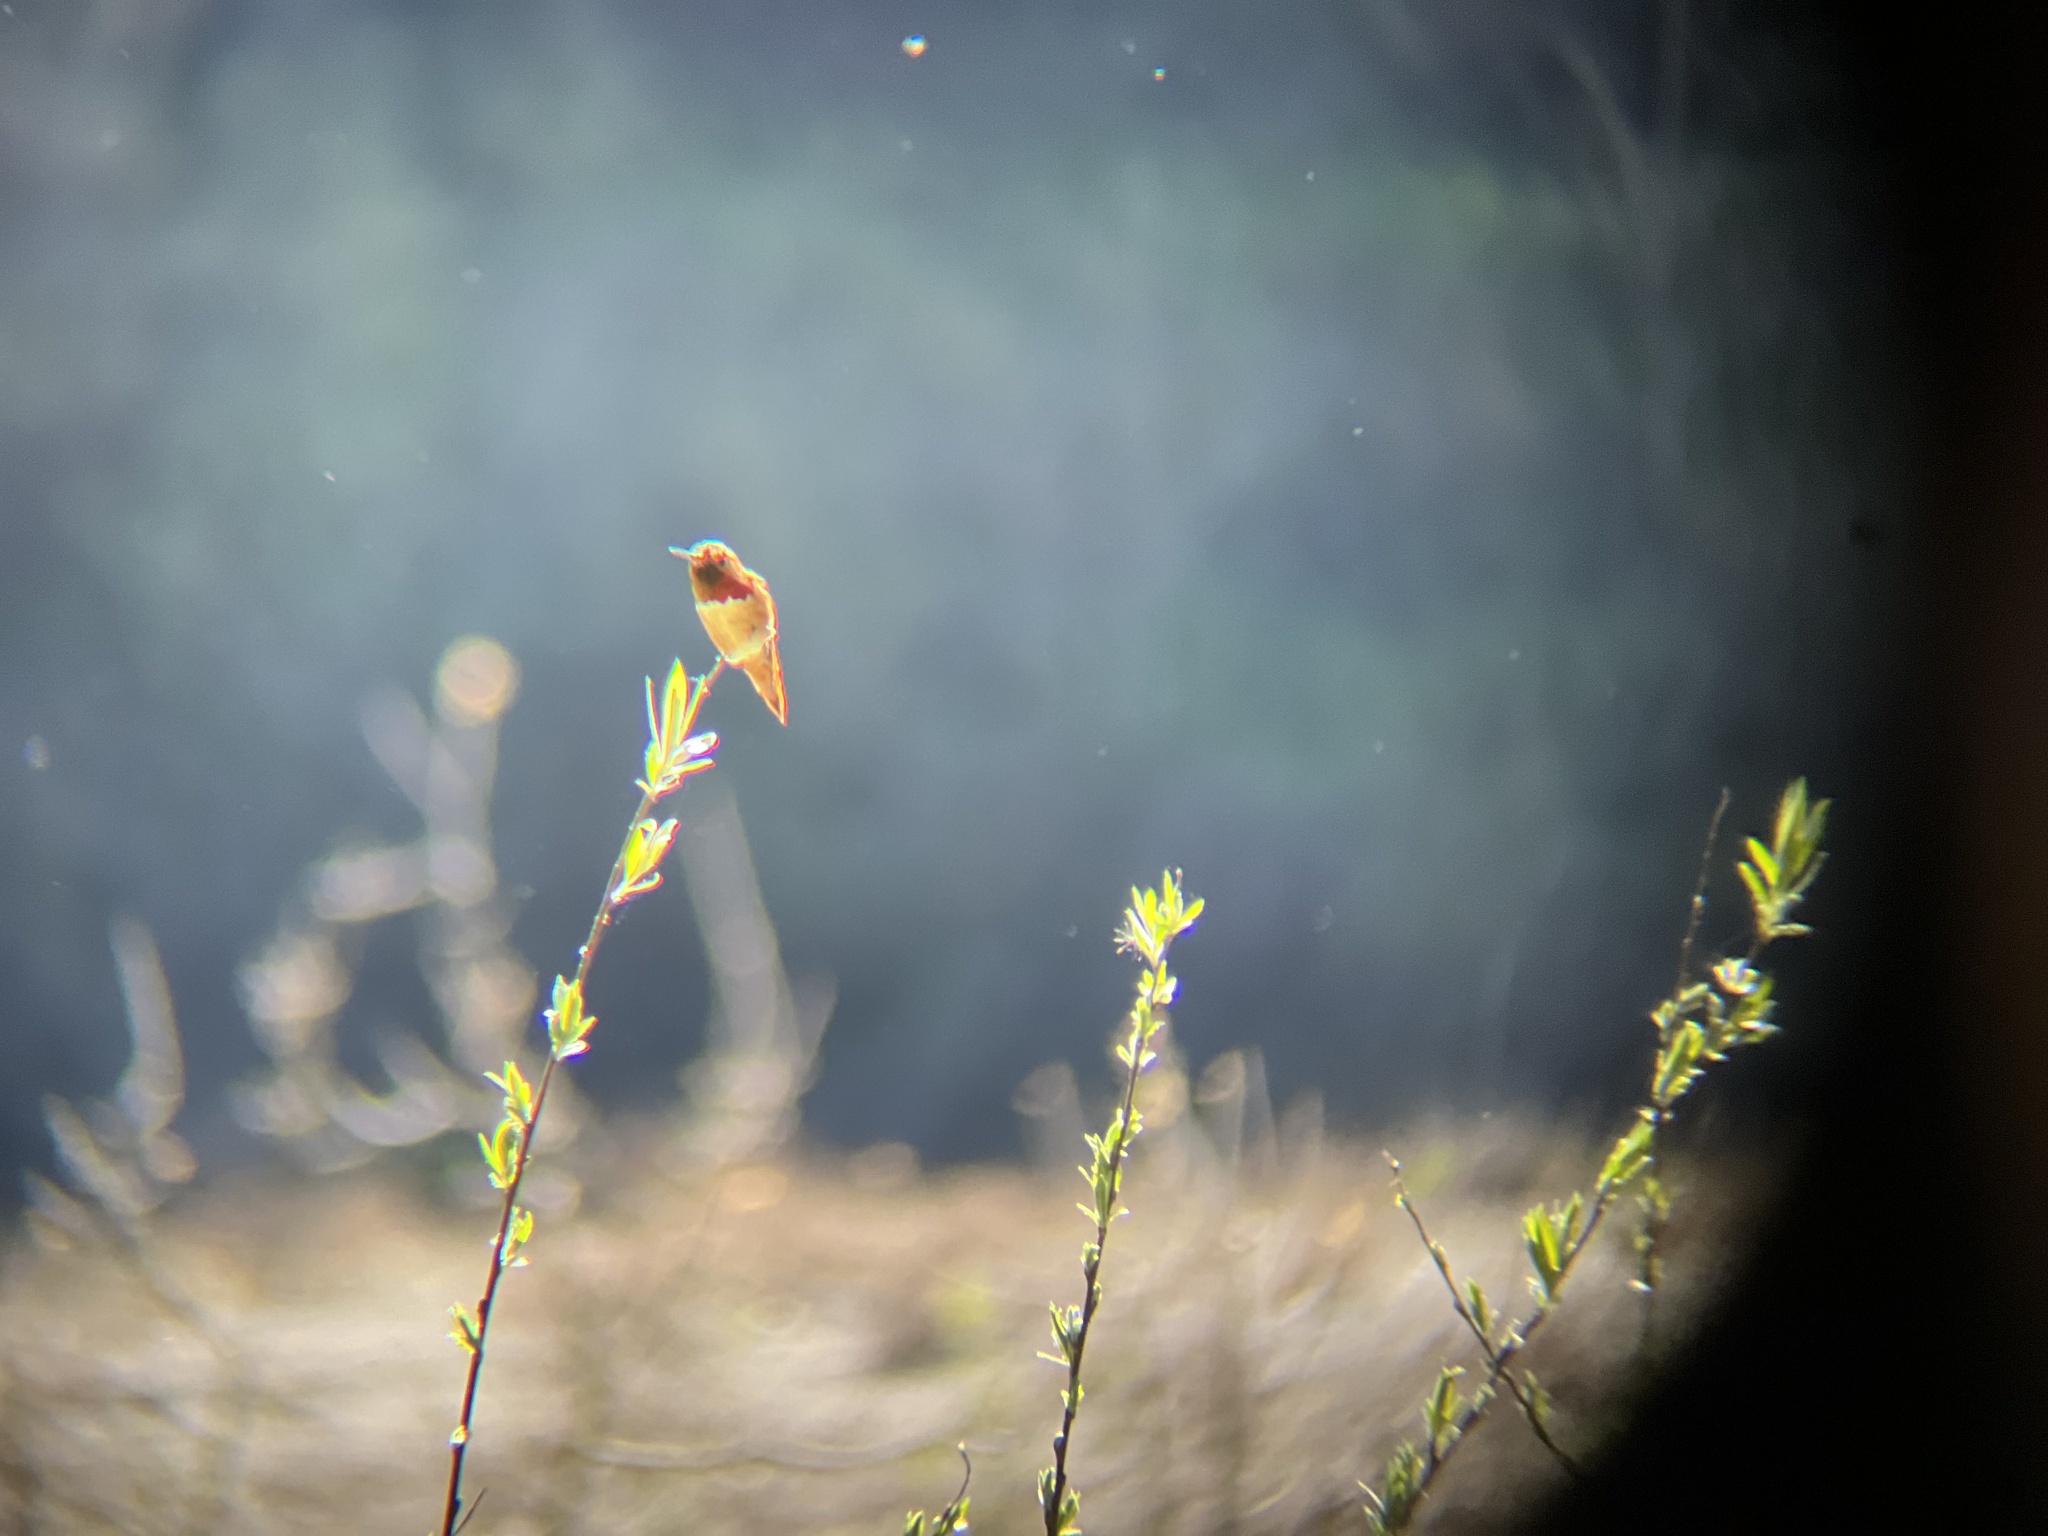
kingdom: Animalia
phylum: Chordata
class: Aves
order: Apodiformes
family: Trochilidae
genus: Selasphorus
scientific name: Selasphorus
